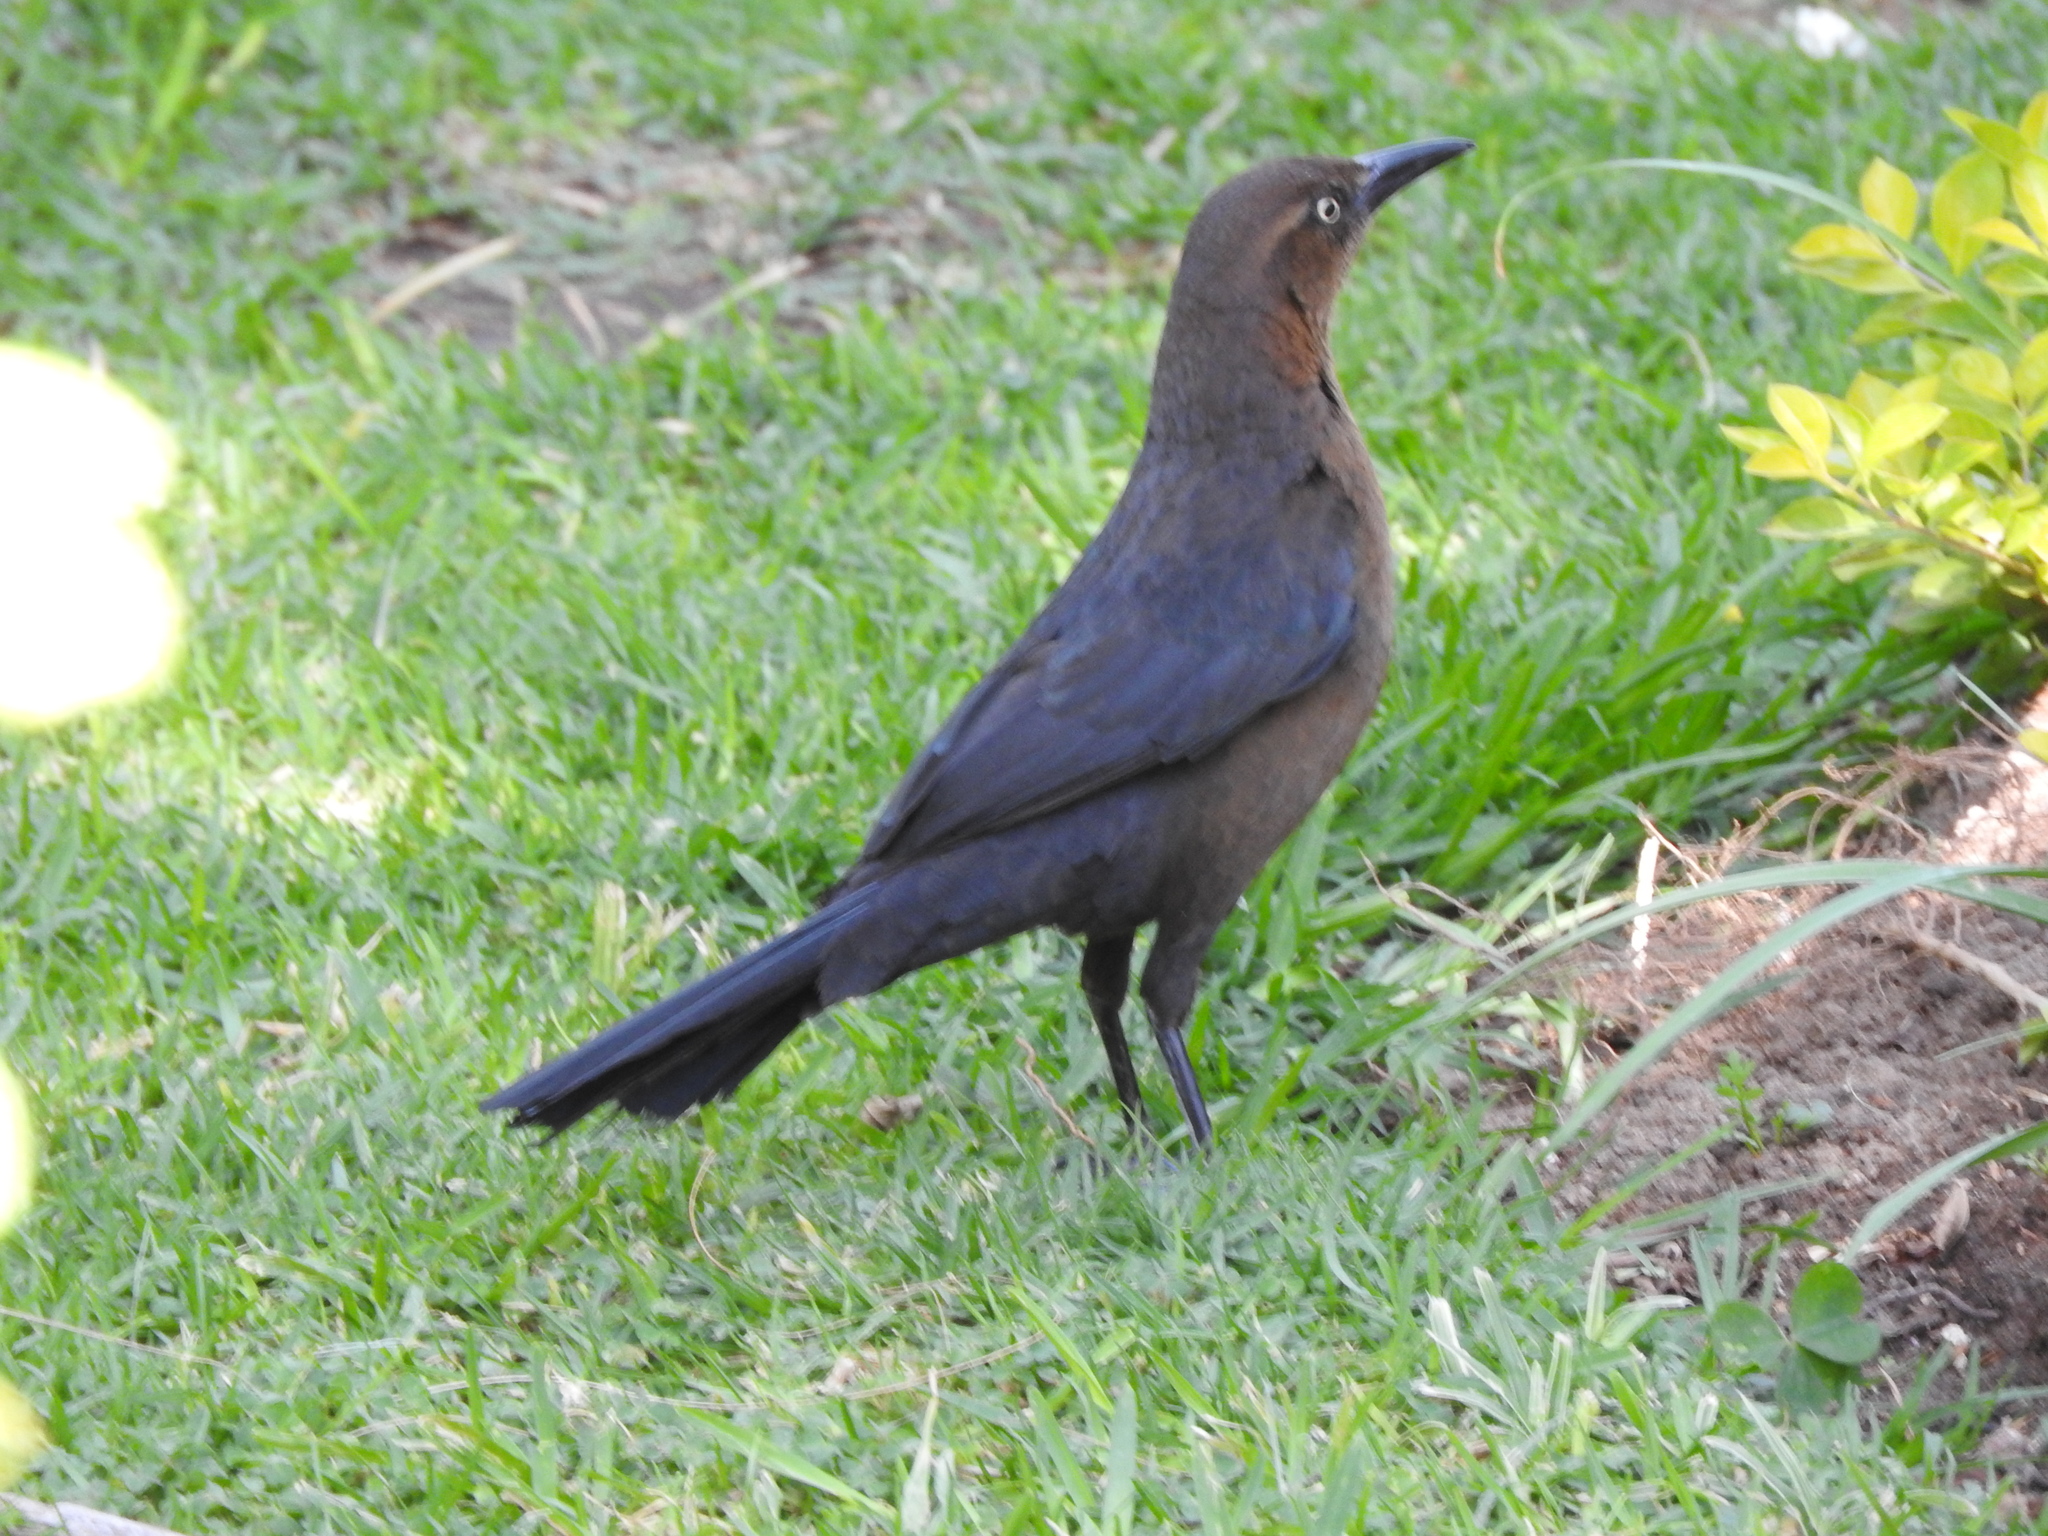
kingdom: Animalia
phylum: Chordata
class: Aves
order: Passeriformes
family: Icteridae
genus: Quiscalus
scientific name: Quiscalus mexicanus
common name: Great-tailed grackle
